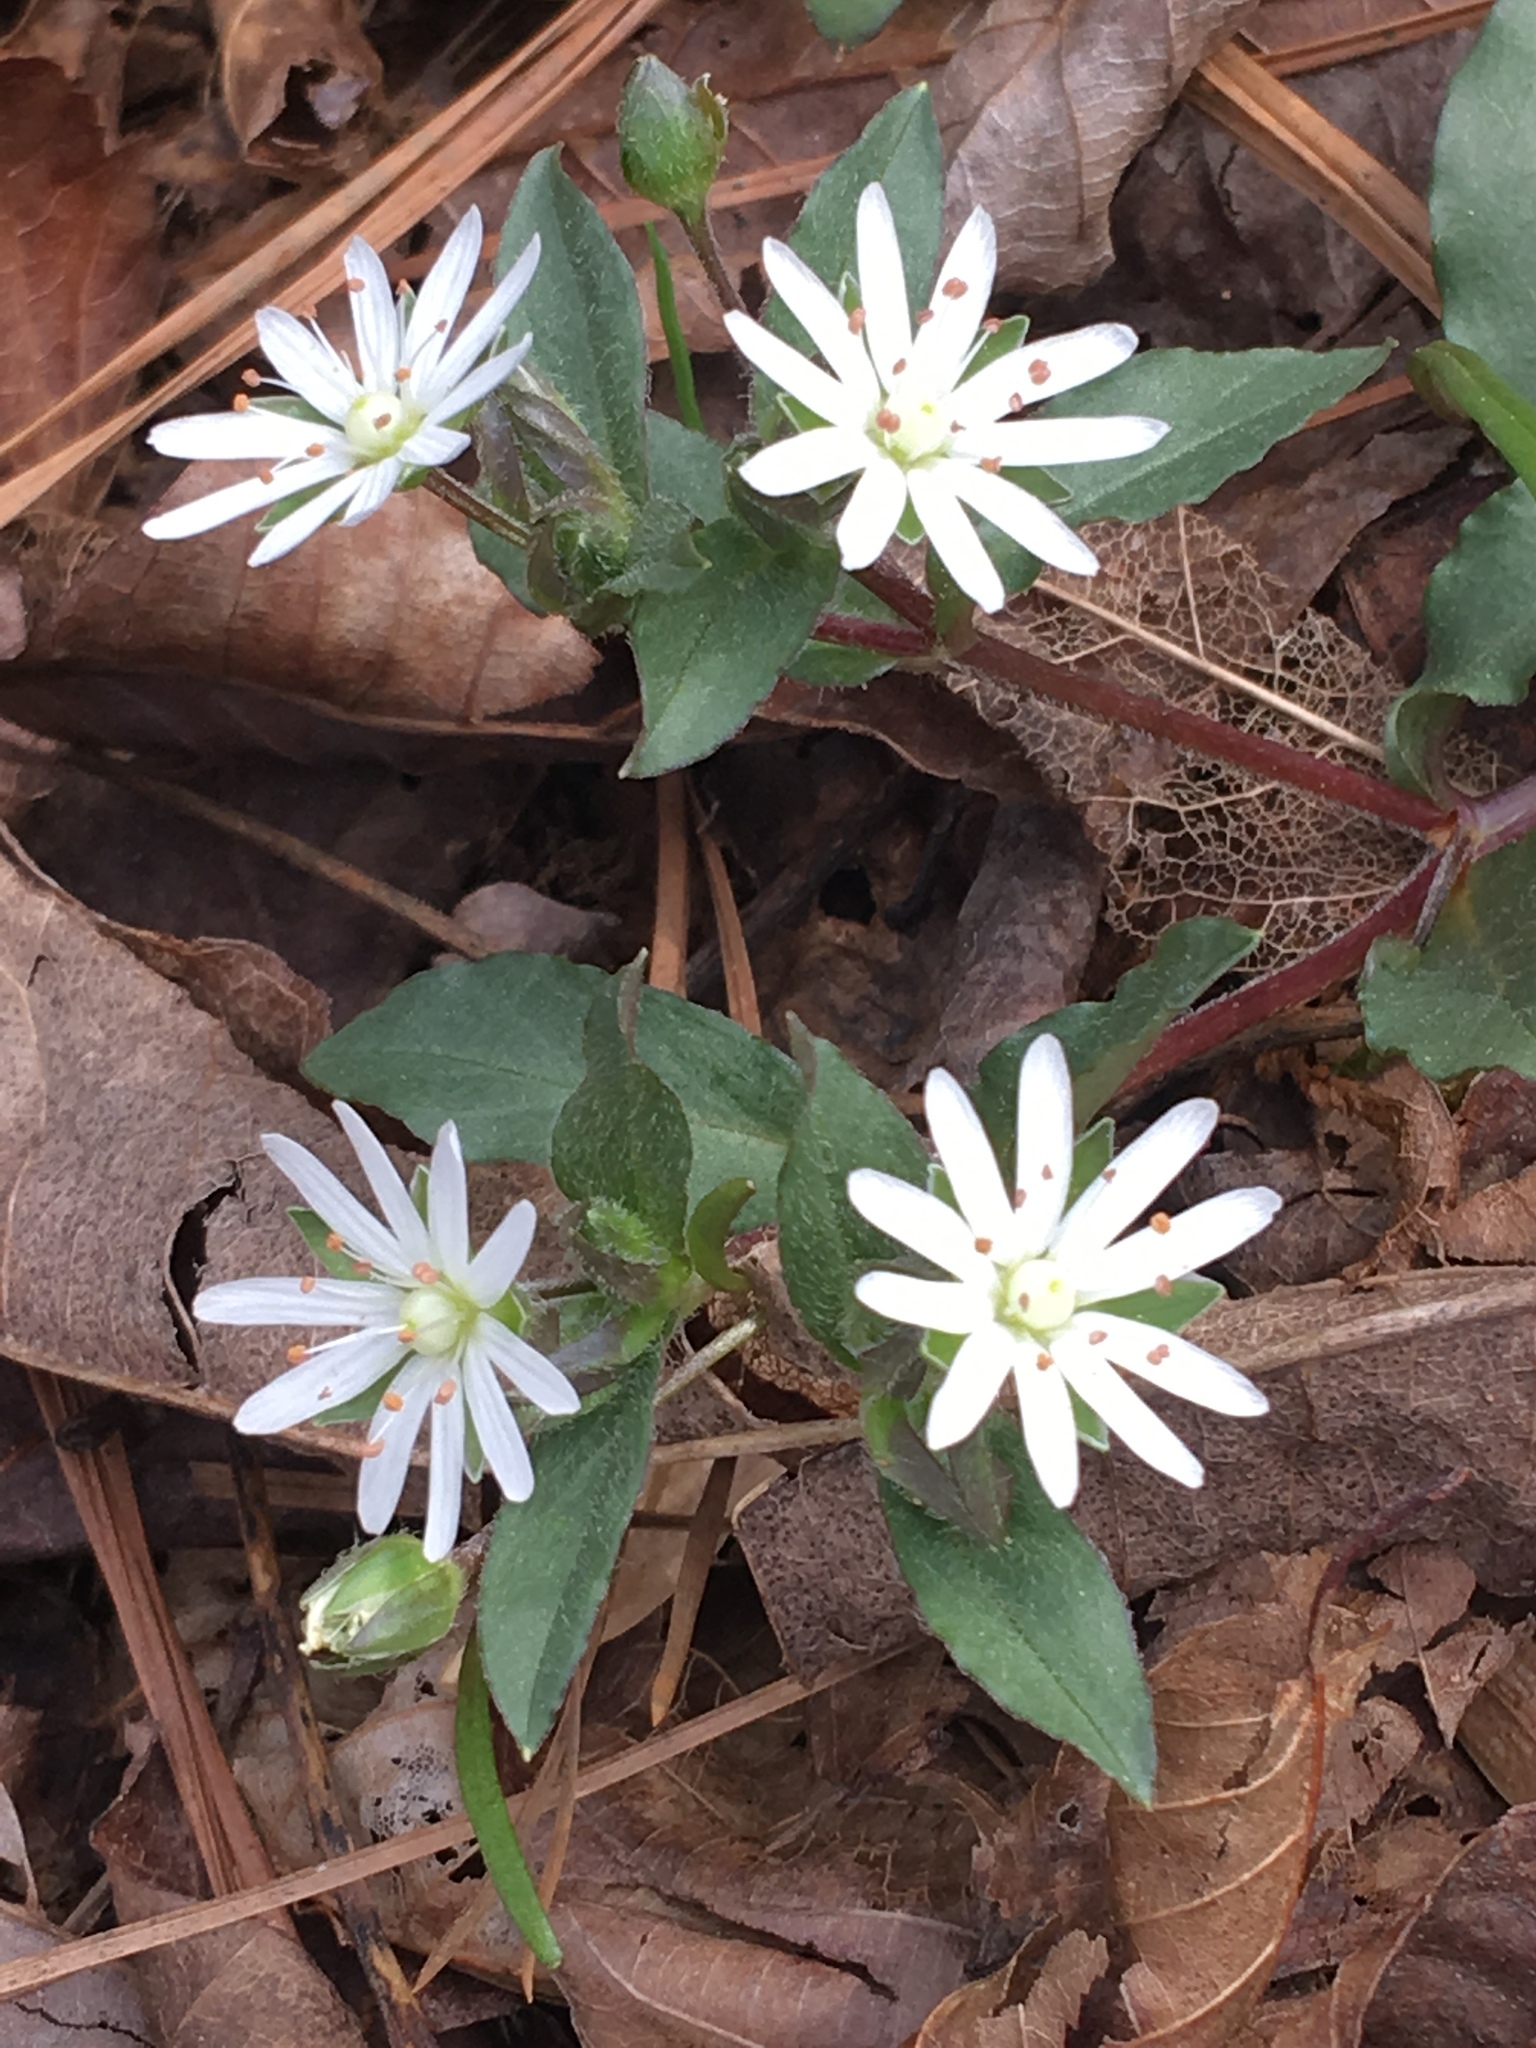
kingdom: Plantae
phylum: Tracheophyta
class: Magnoliopsida
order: Caryophyllales
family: Caryophyllaceae
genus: Stellaria
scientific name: Stellaria pubera
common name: Star chickweed
